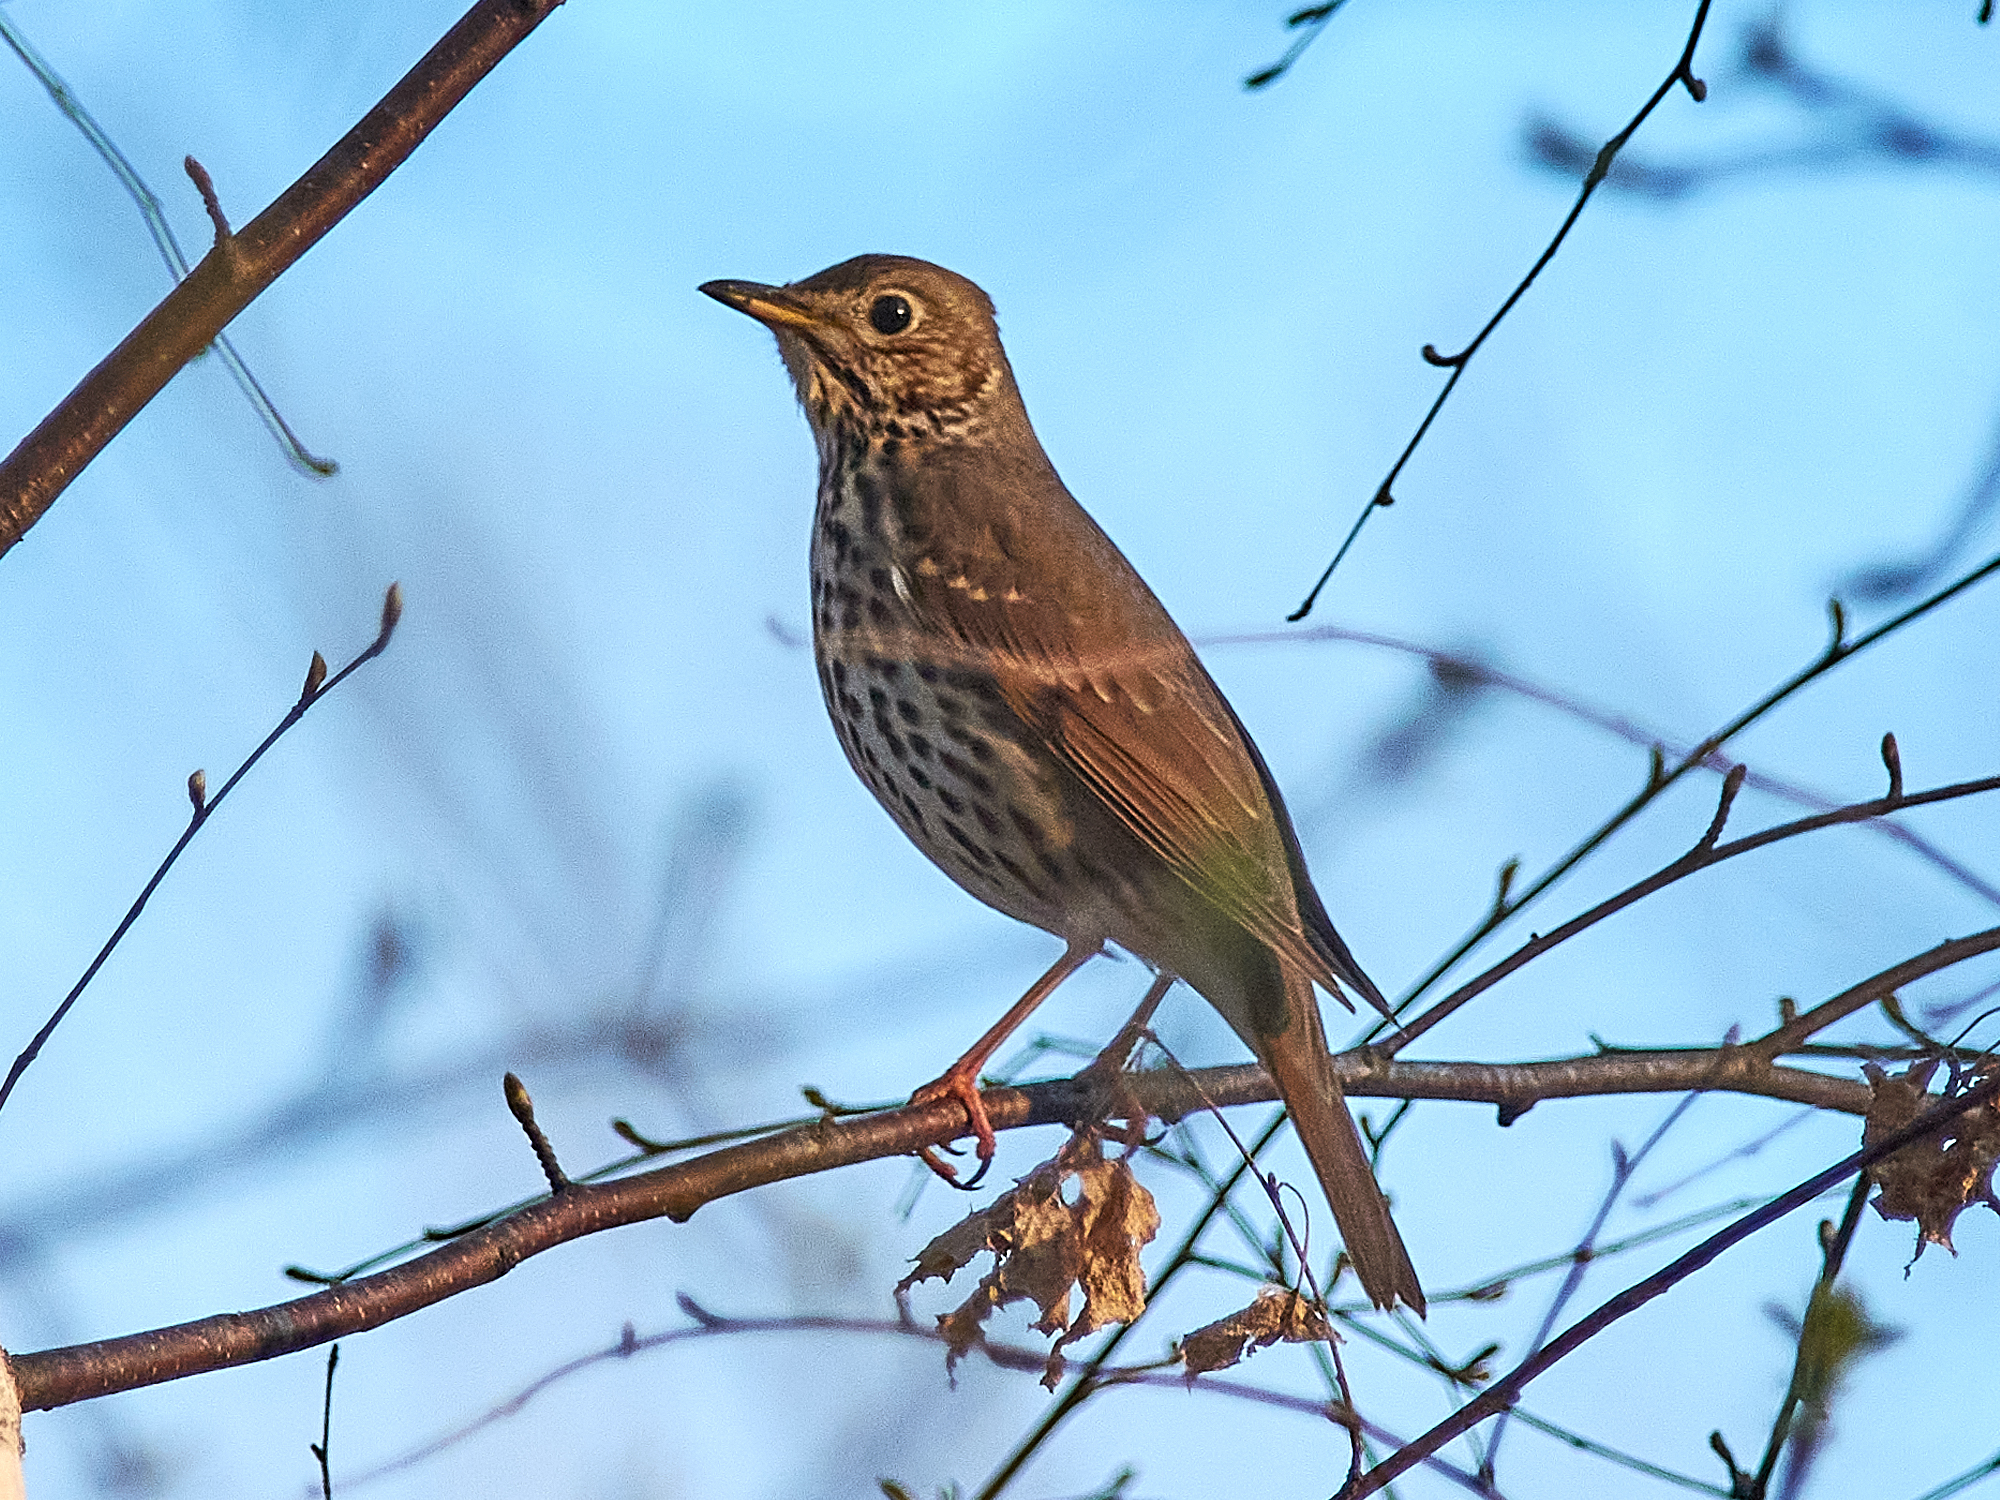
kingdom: Animalia
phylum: Chordata
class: Aves
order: Passeriformes
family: Turdidae
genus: Turdus
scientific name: Turdus philomelos
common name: Song thrush
